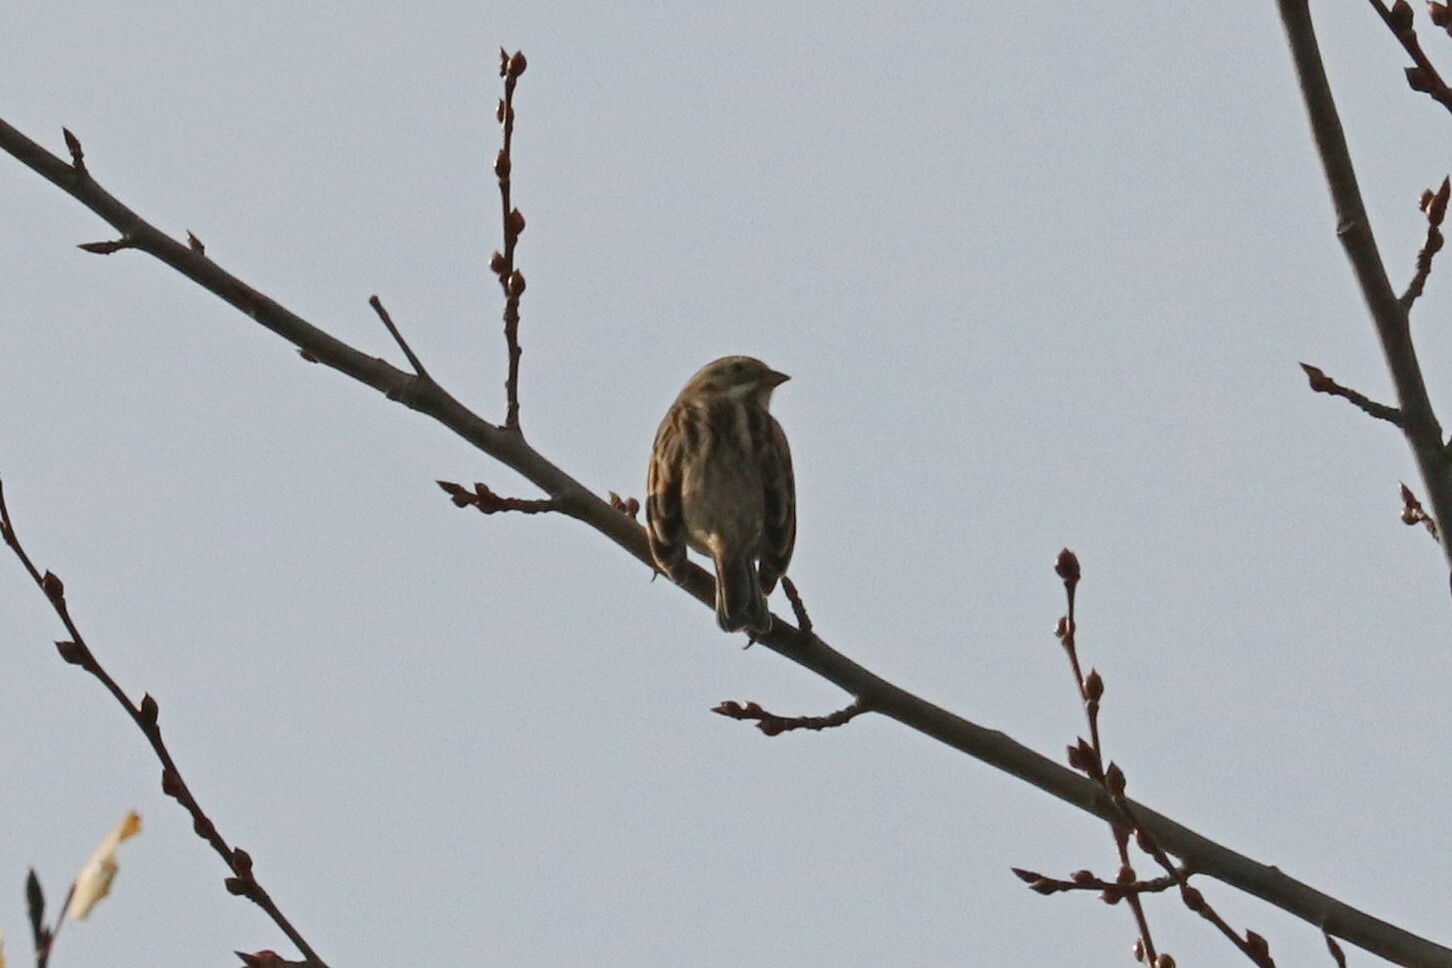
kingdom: Animalia
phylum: Chordata
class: Aves
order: Passeriformes
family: Emberizidae
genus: Emberiza
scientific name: Emberiza schoeniclus
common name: Reed bunting
